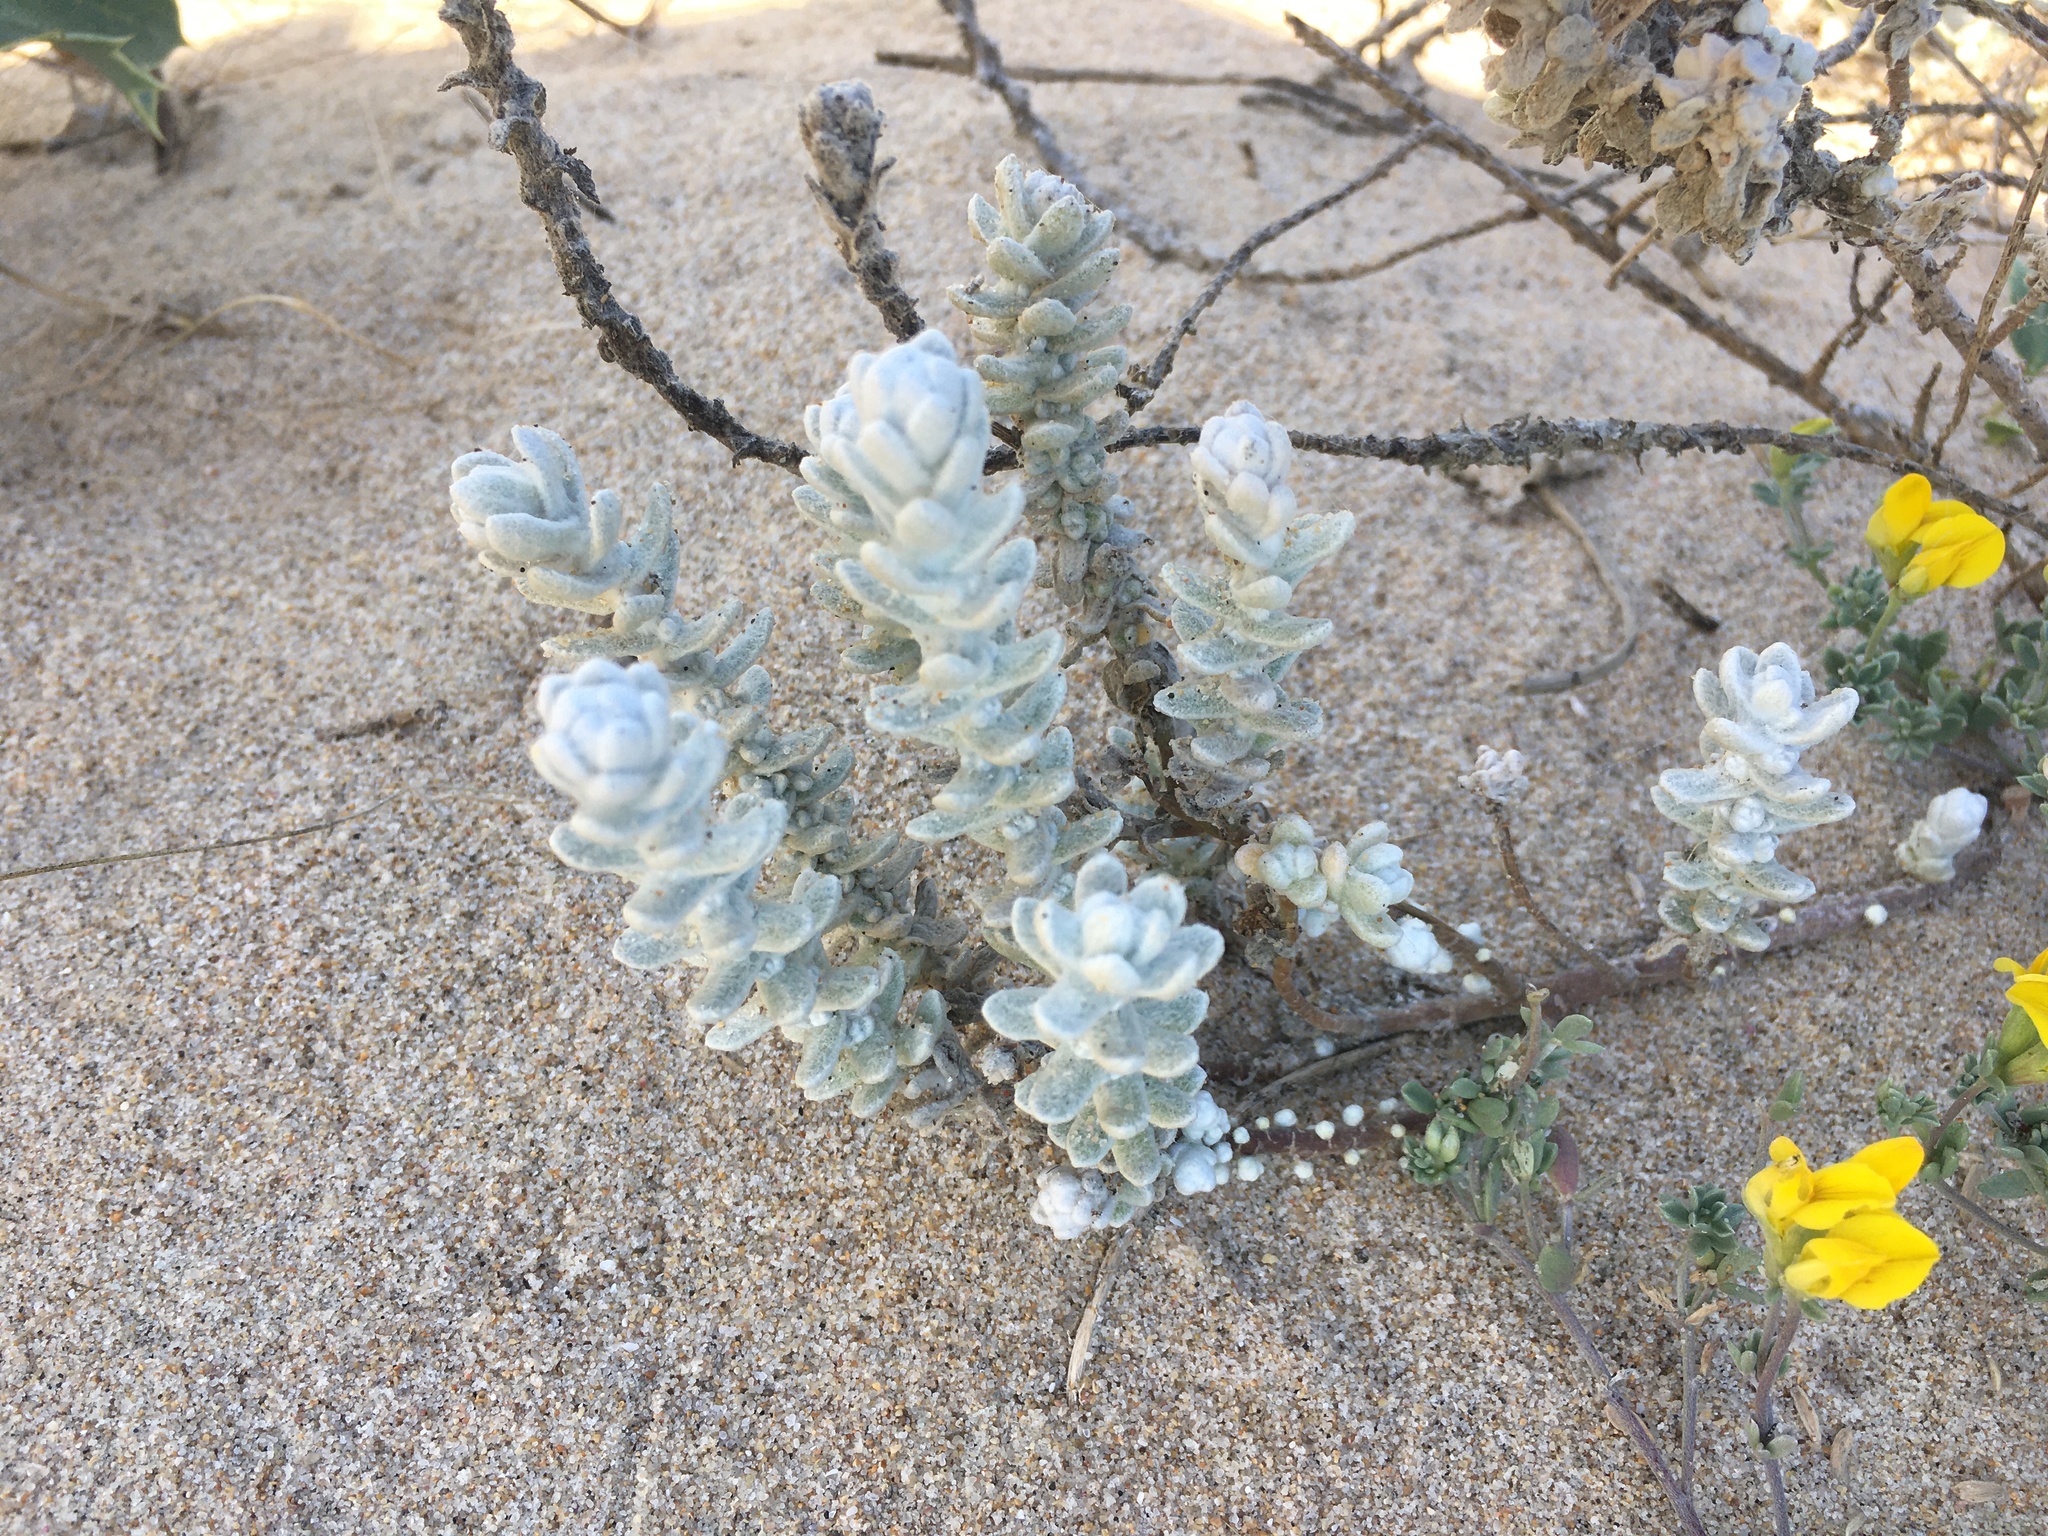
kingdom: Plantae
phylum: Tracheophyta
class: Magnoliopsida
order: Asterales
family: Asteraceae
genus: Achillea
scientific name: Achillea maritima
